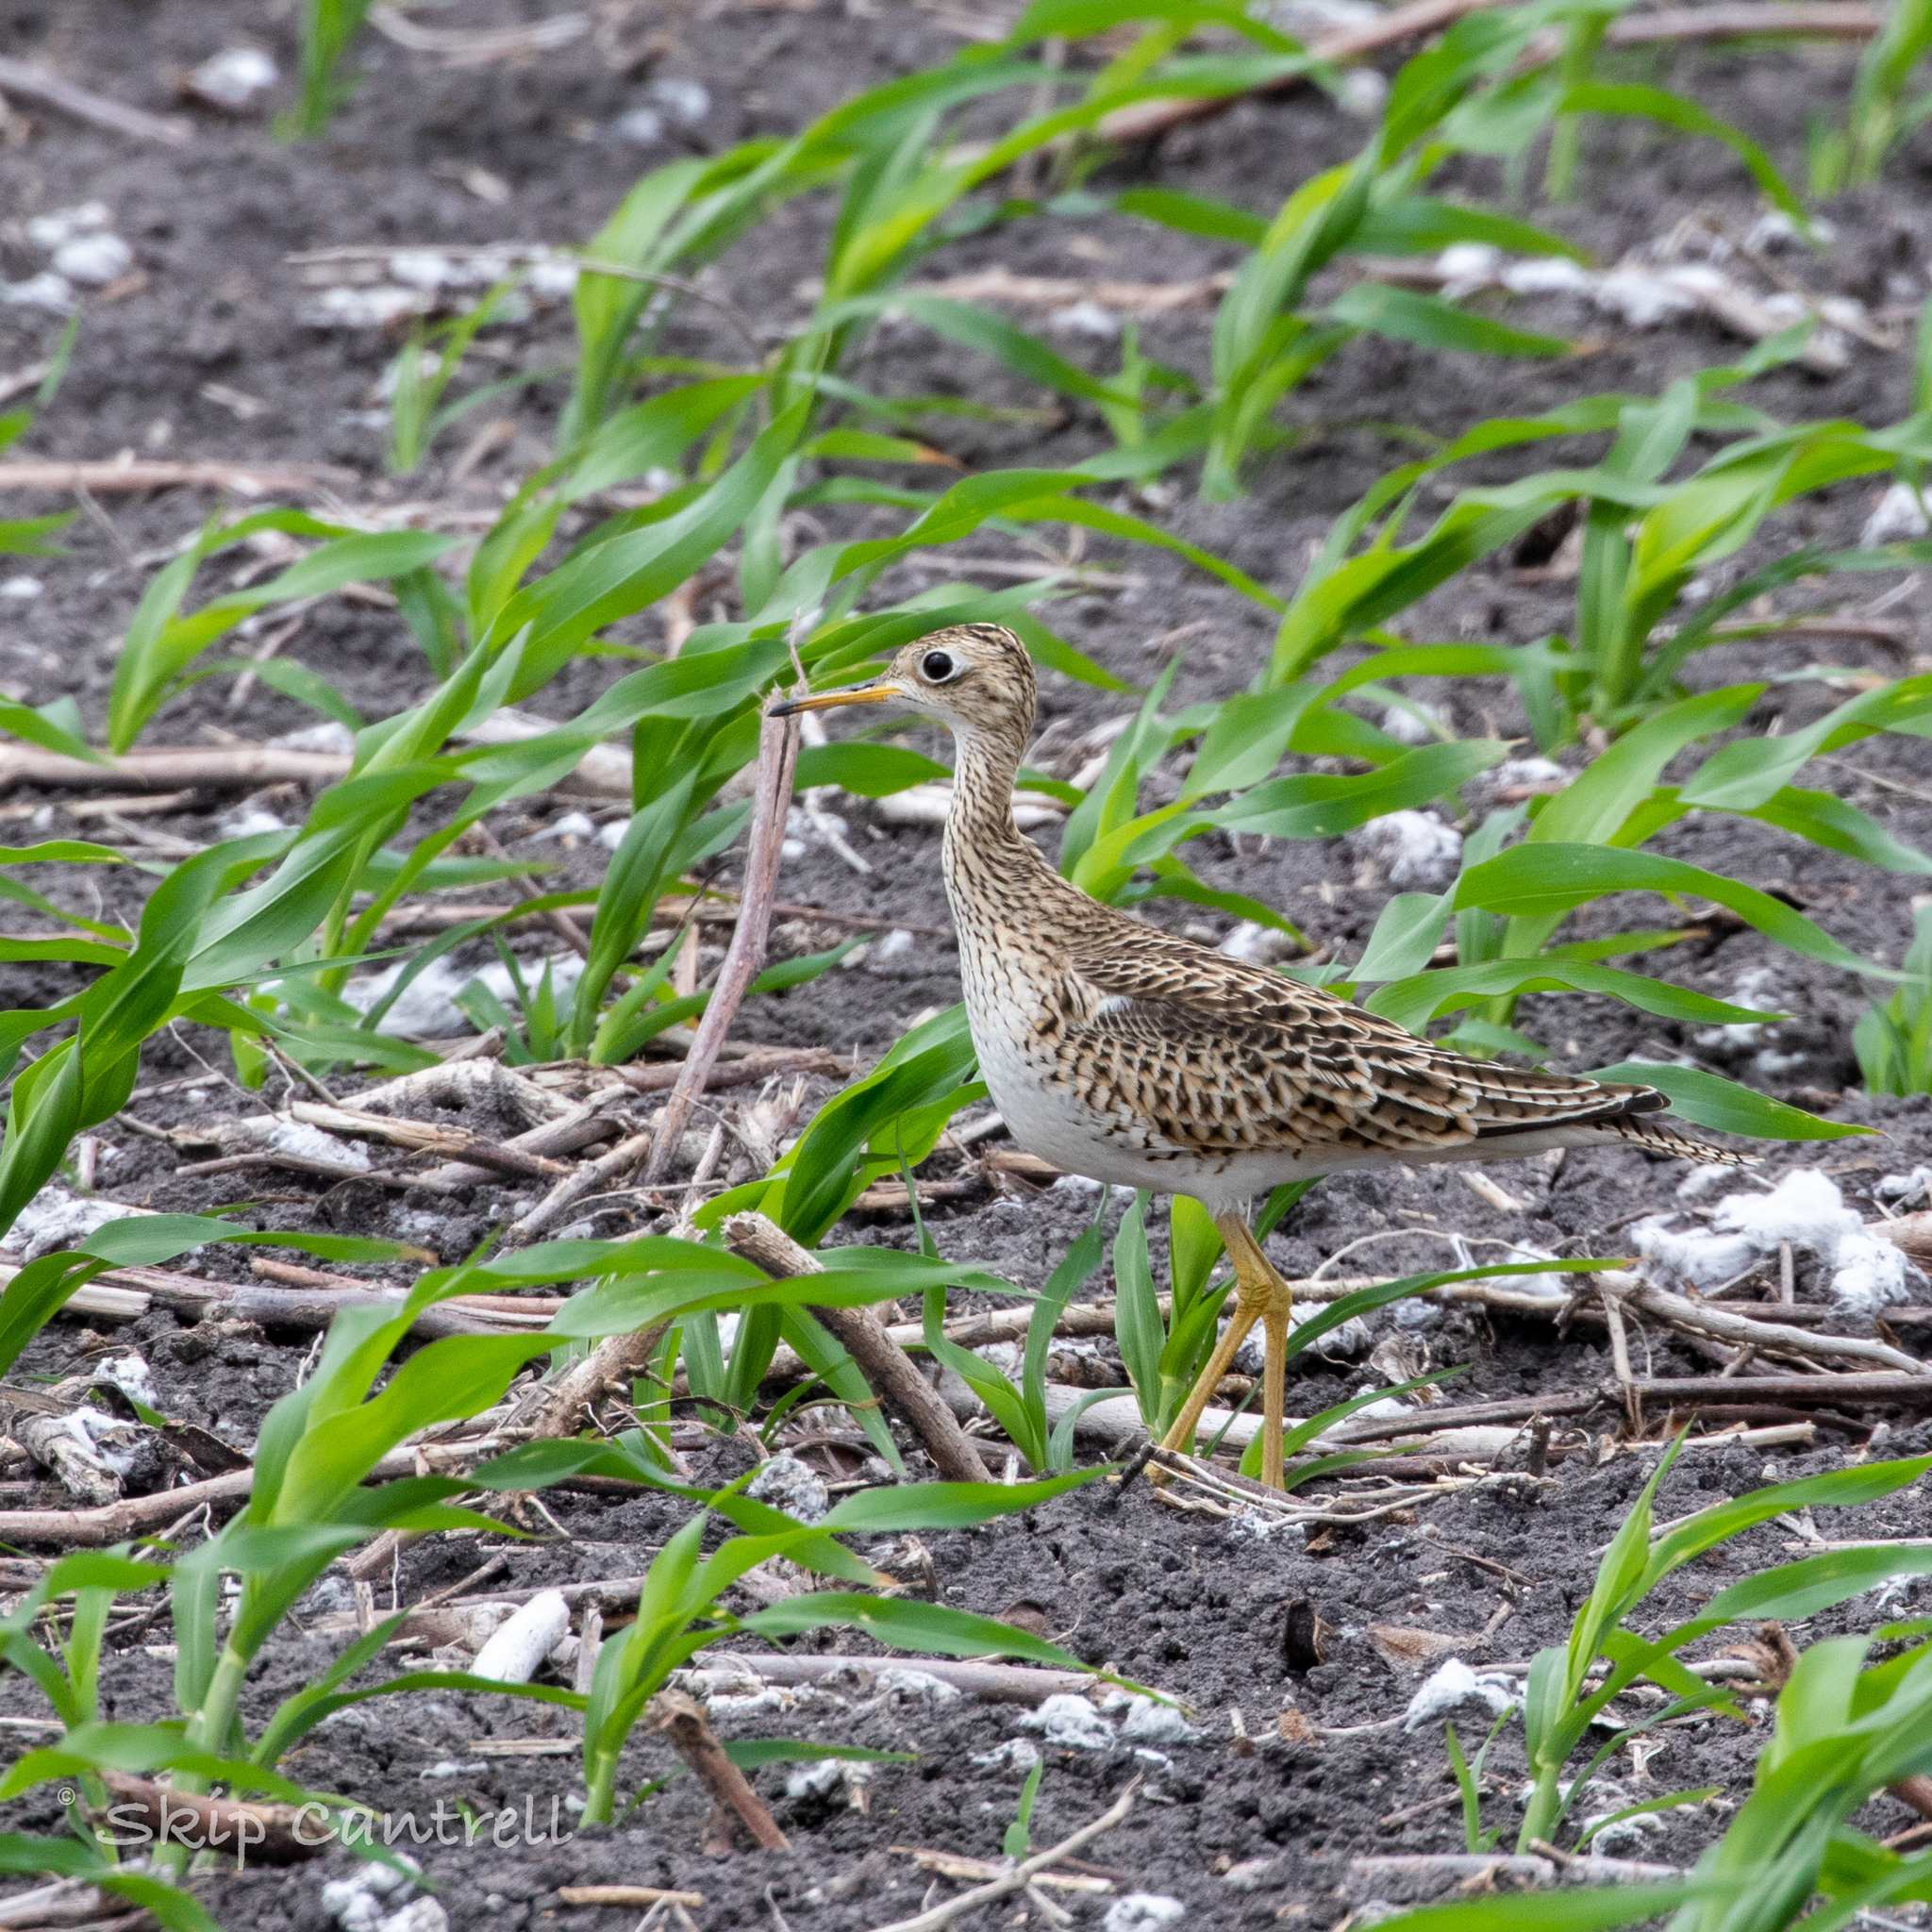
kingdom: Animalia
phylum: Chordata
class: Aves
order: Charadriiformes
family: Scolopacidae
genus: Bartramia
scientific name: Bartramia longicauda
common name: Upland sandpiper
